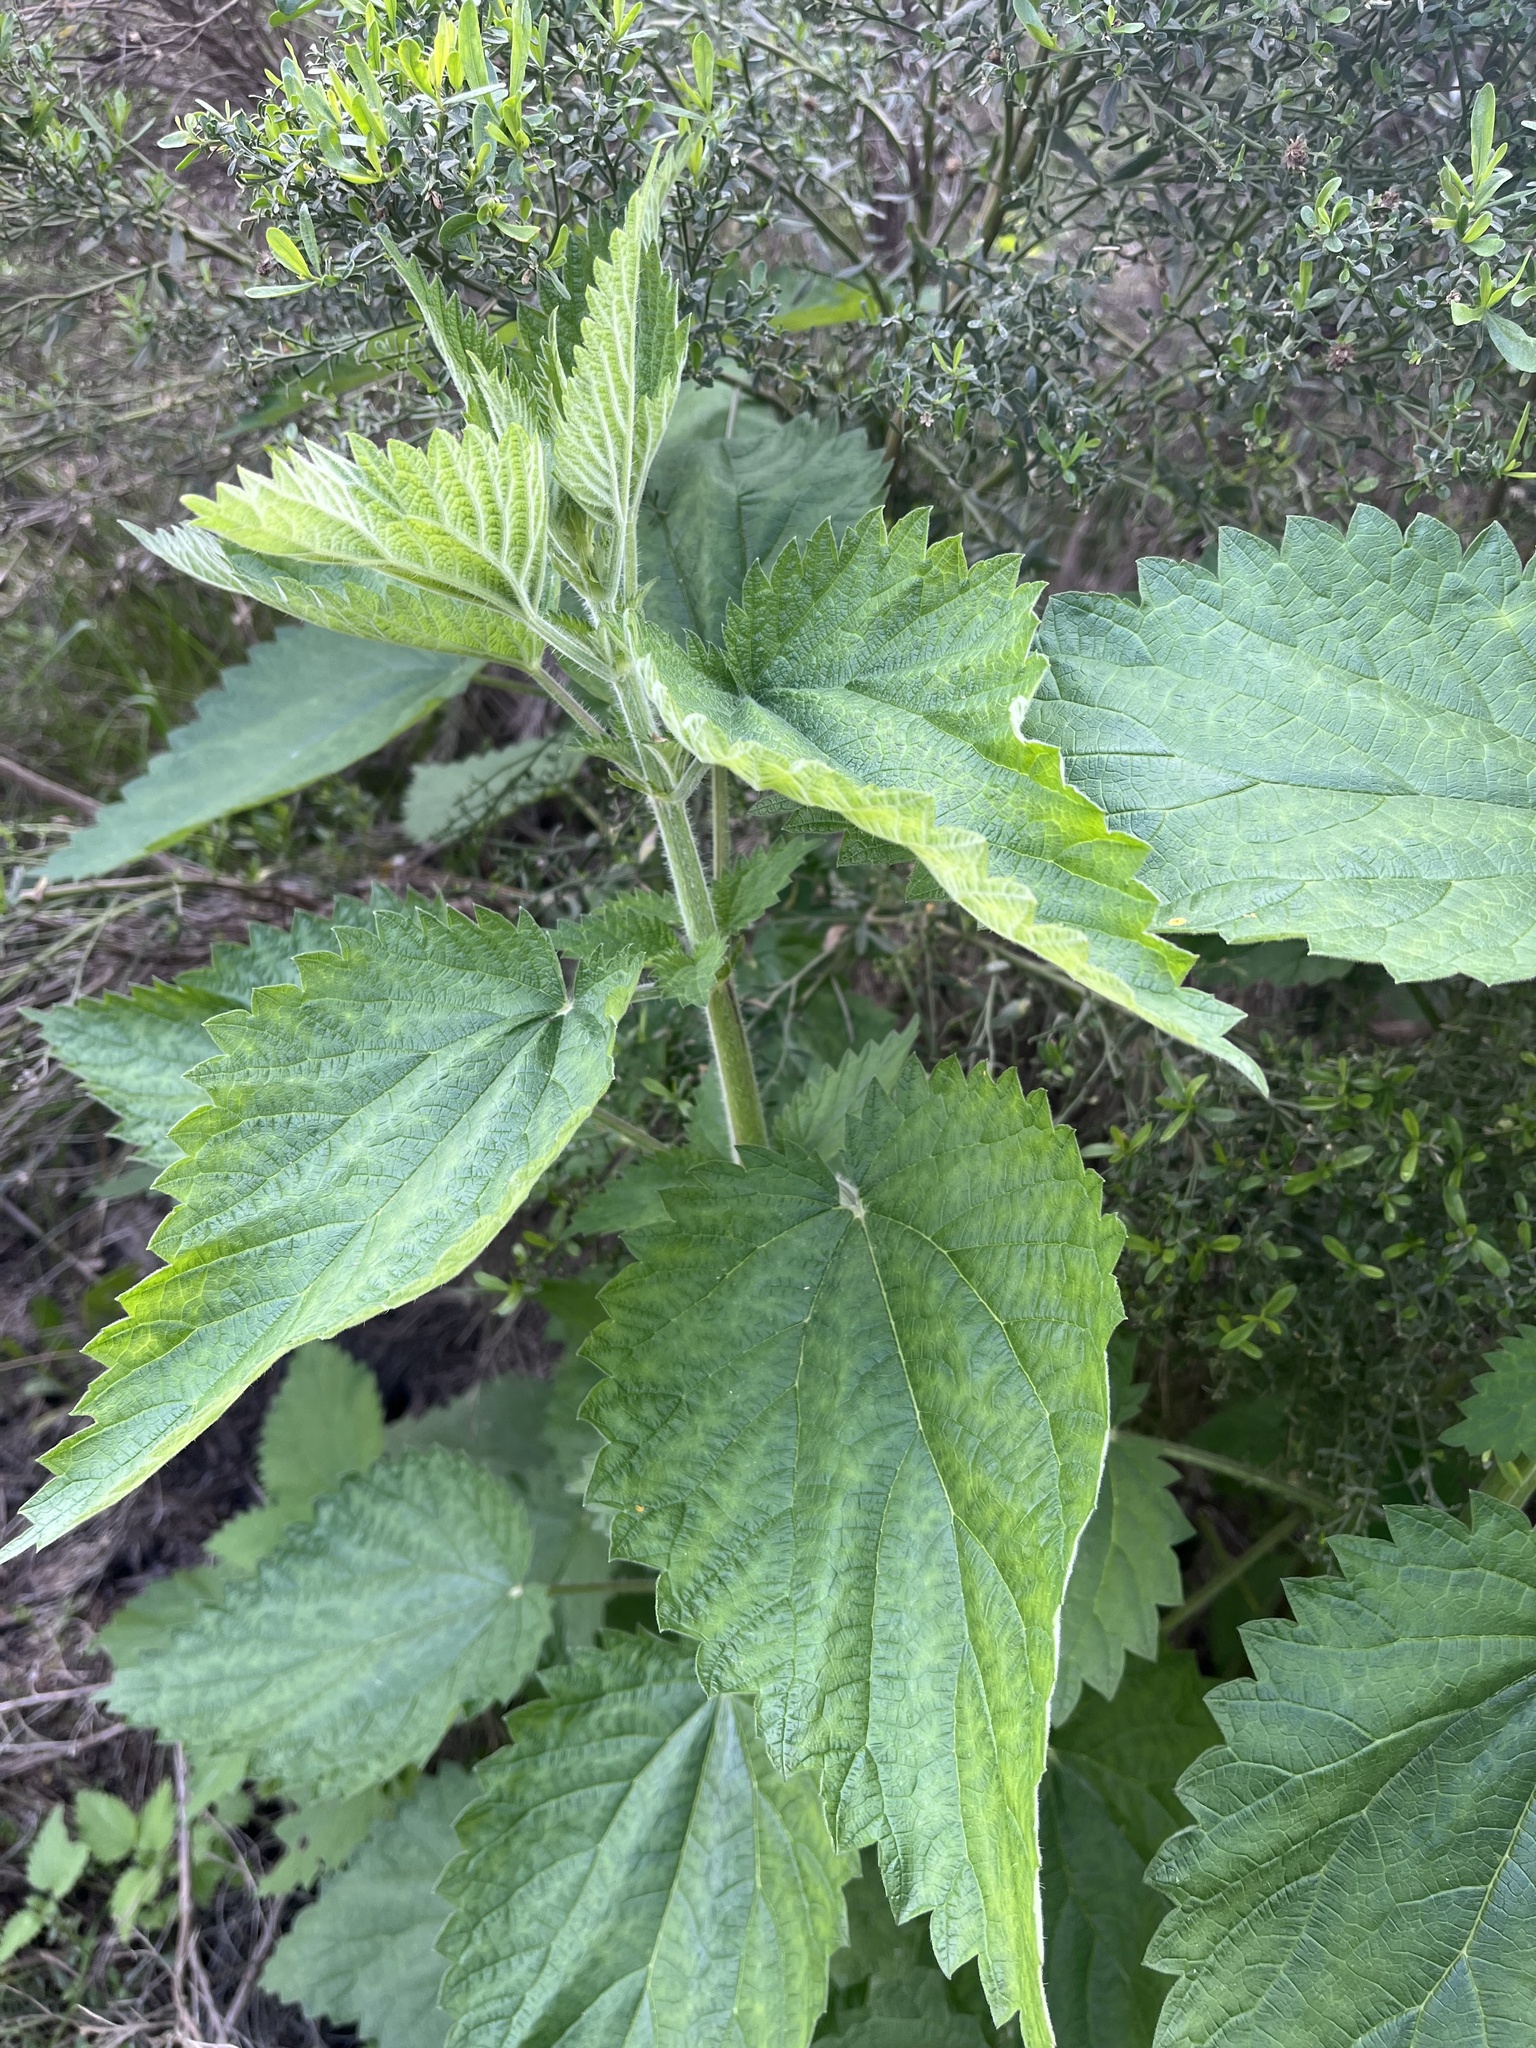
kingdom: Plantae
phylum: Tracheophyta
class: Magnoliopsida
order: Rosales
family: Urticaceae
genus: Urtica
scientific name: Urtica gracilis
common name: Slender stinging nettle
